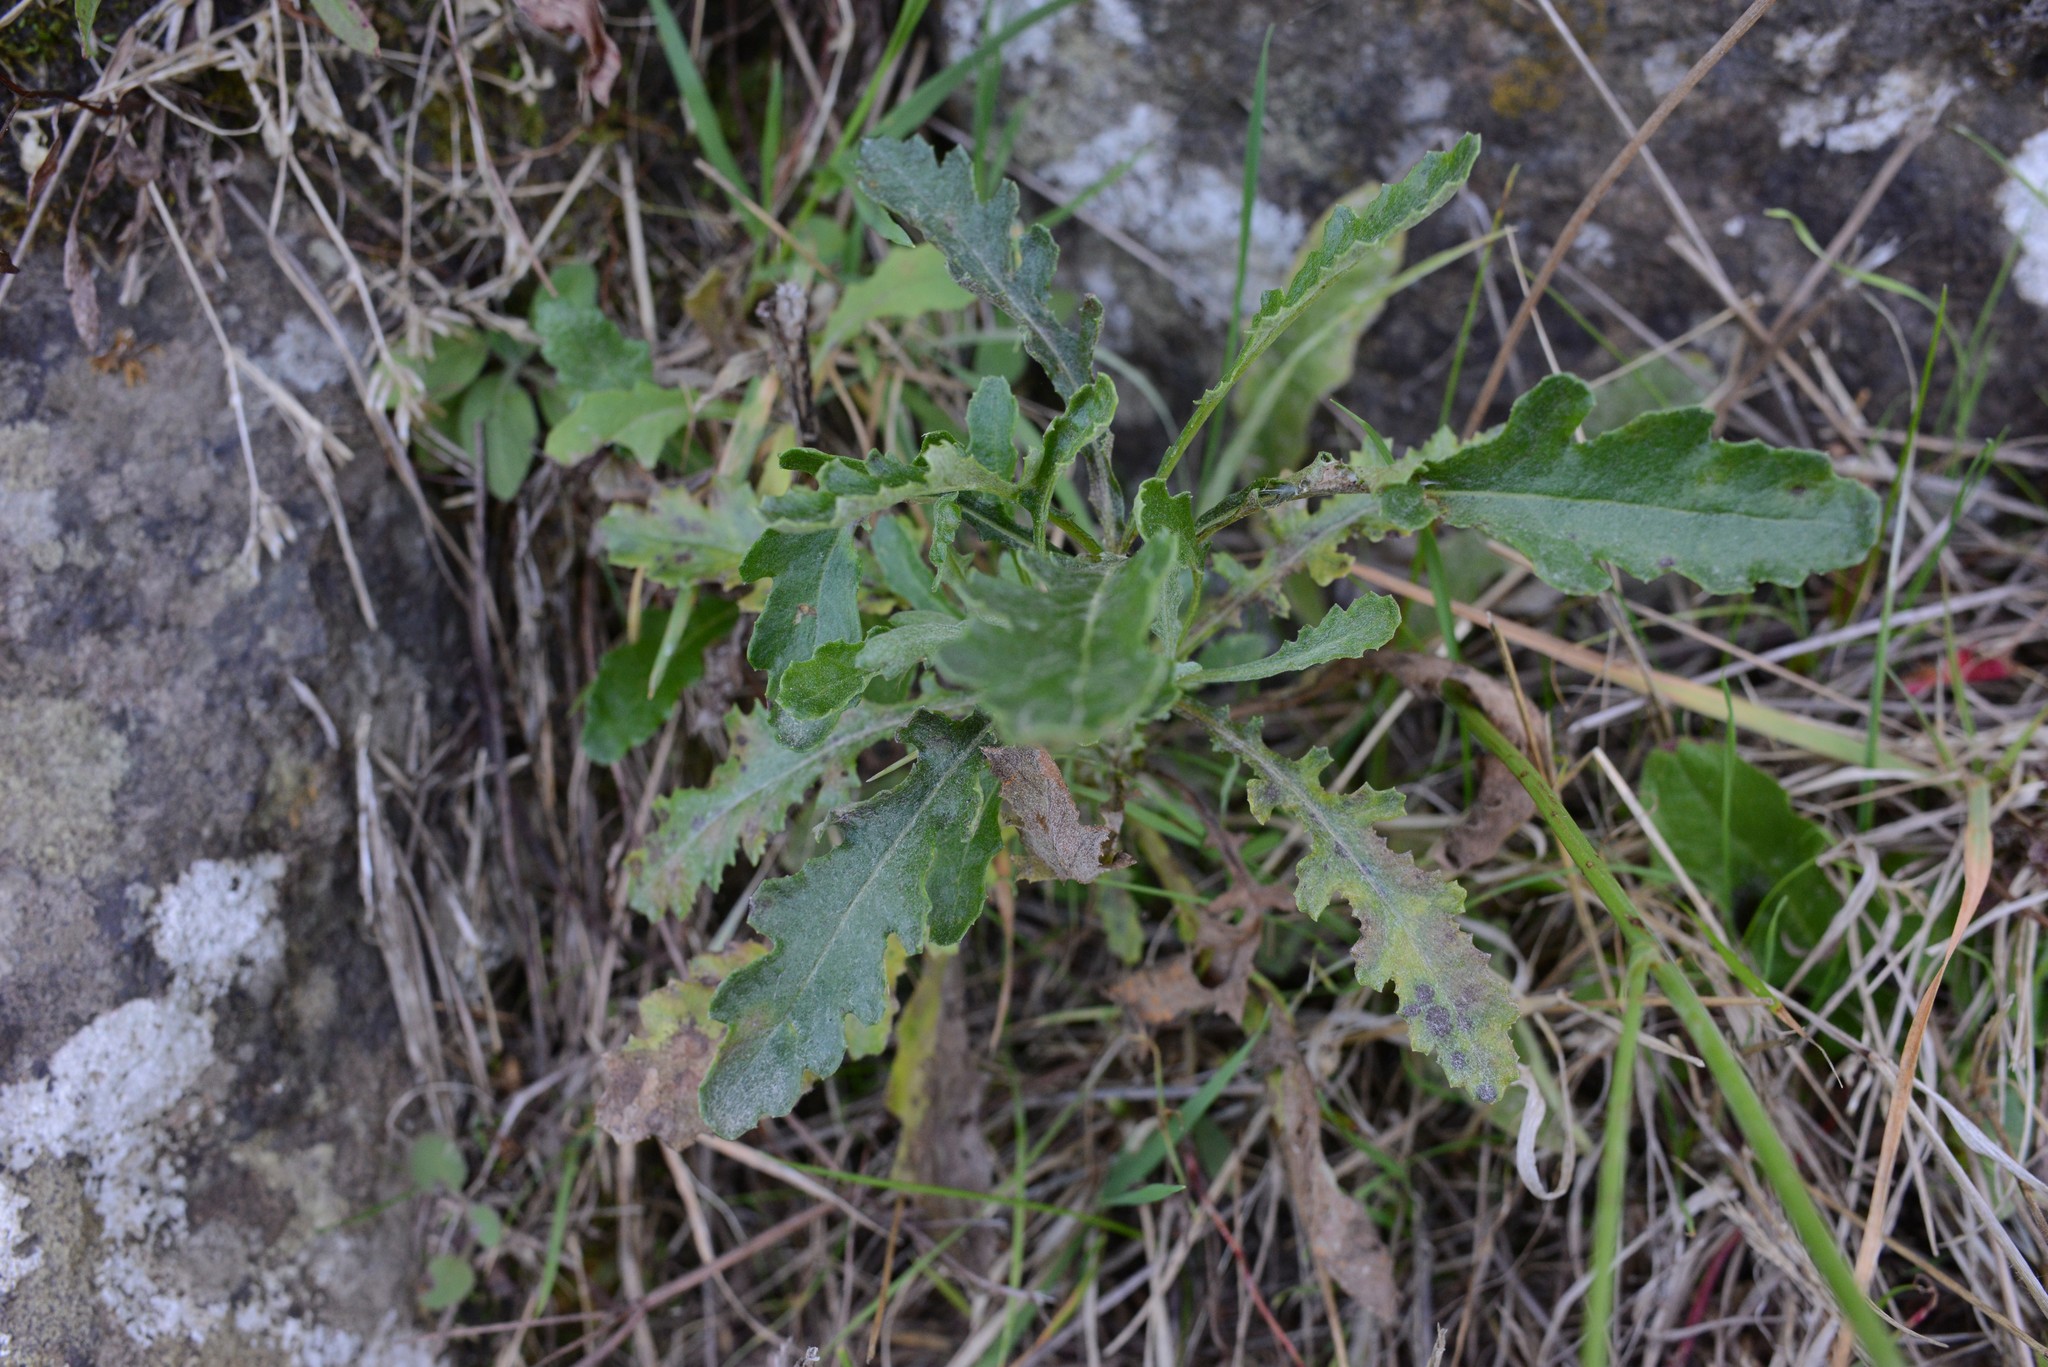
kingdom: Plantae
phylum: Tracheophyta
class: Magnoliopsida
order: Asterales
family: Asteraceae
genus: Senecio
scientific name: Senecio glomeratus
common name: Cutleaf burnweed
